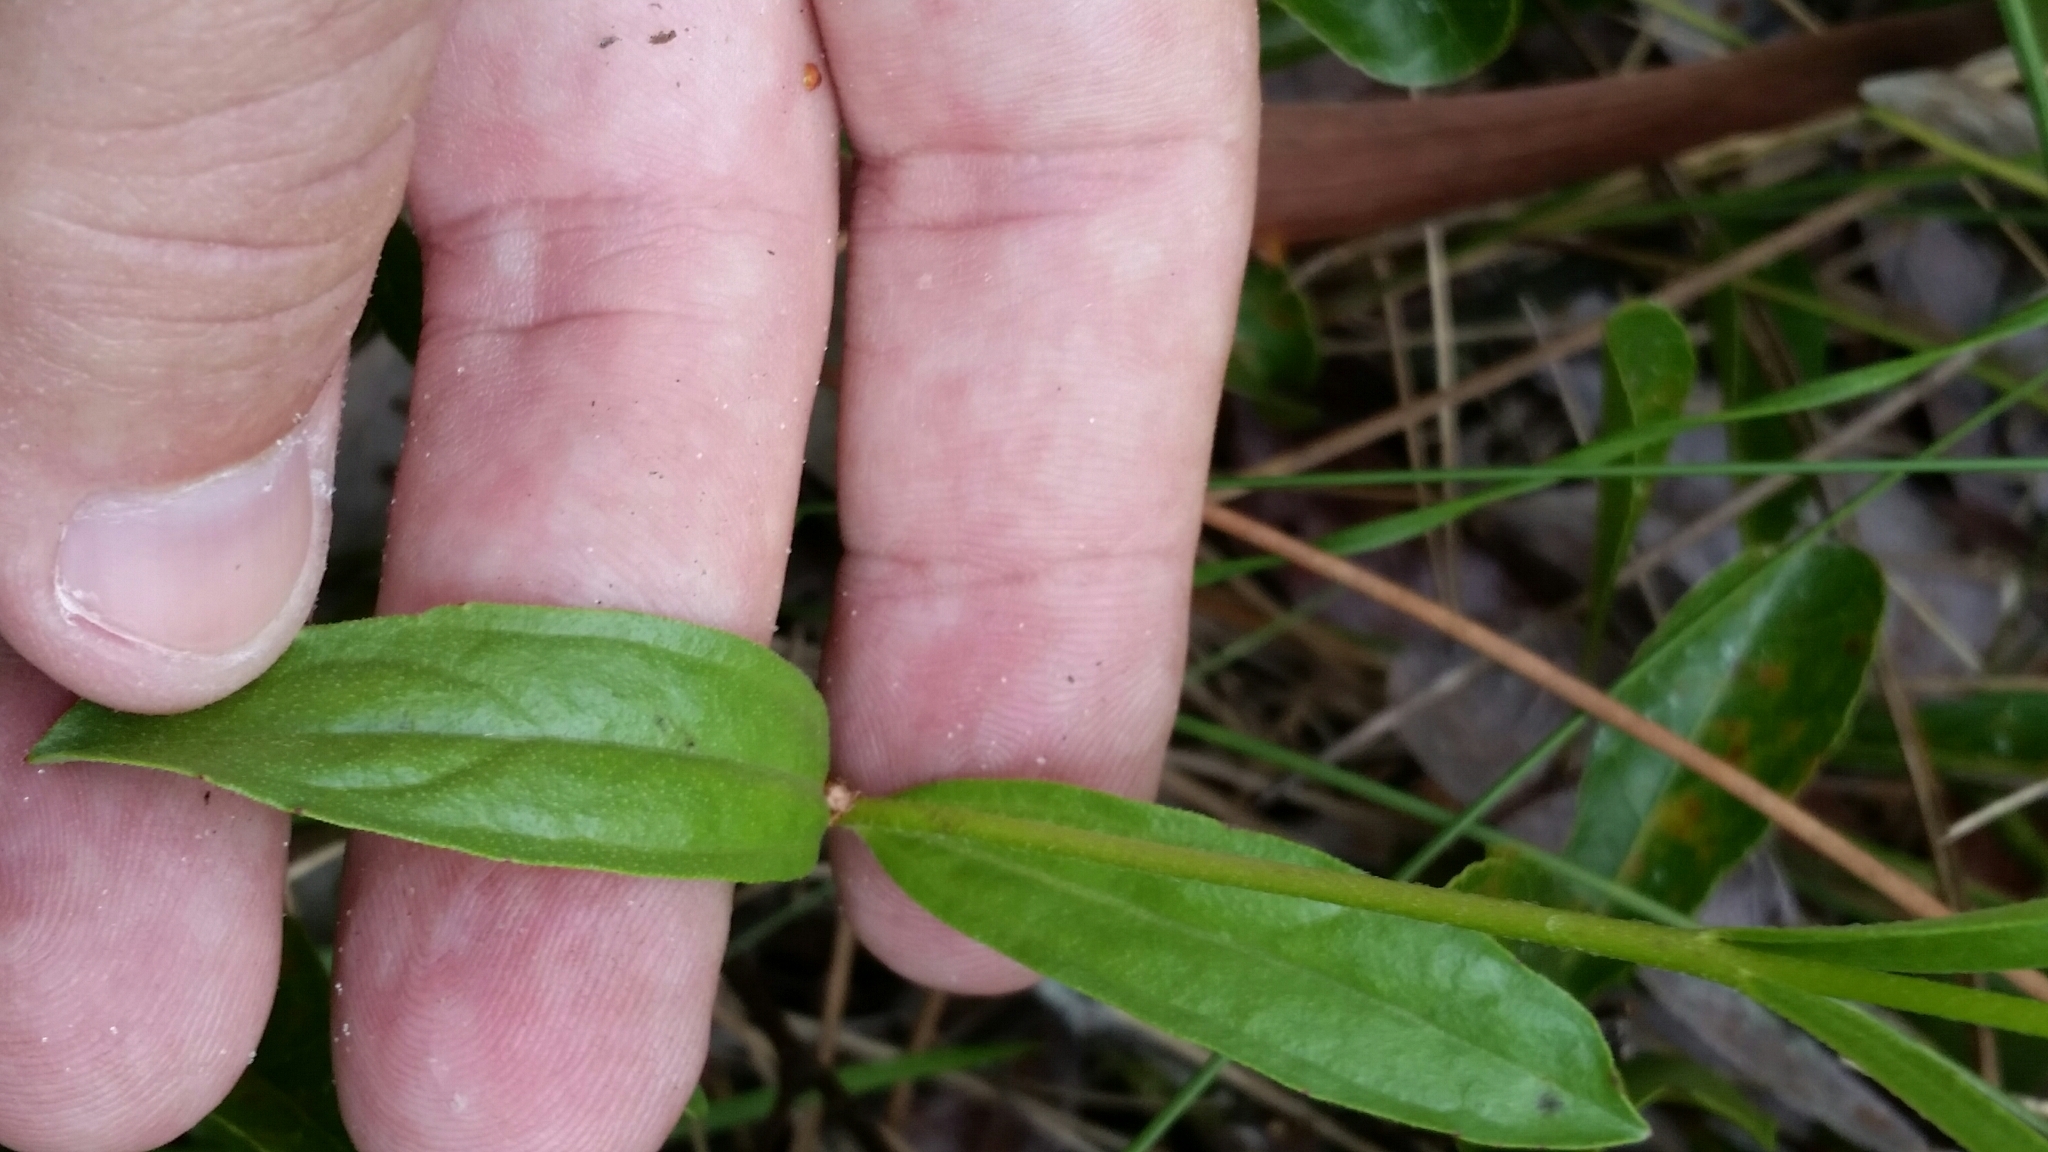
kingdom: Plantae
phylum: Tracheophyta
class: Magnoliopsida
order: Lamiales
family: Orobanchaceae
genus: Buchnera
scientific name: Buchnera floridana
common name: Florida bluehearts
